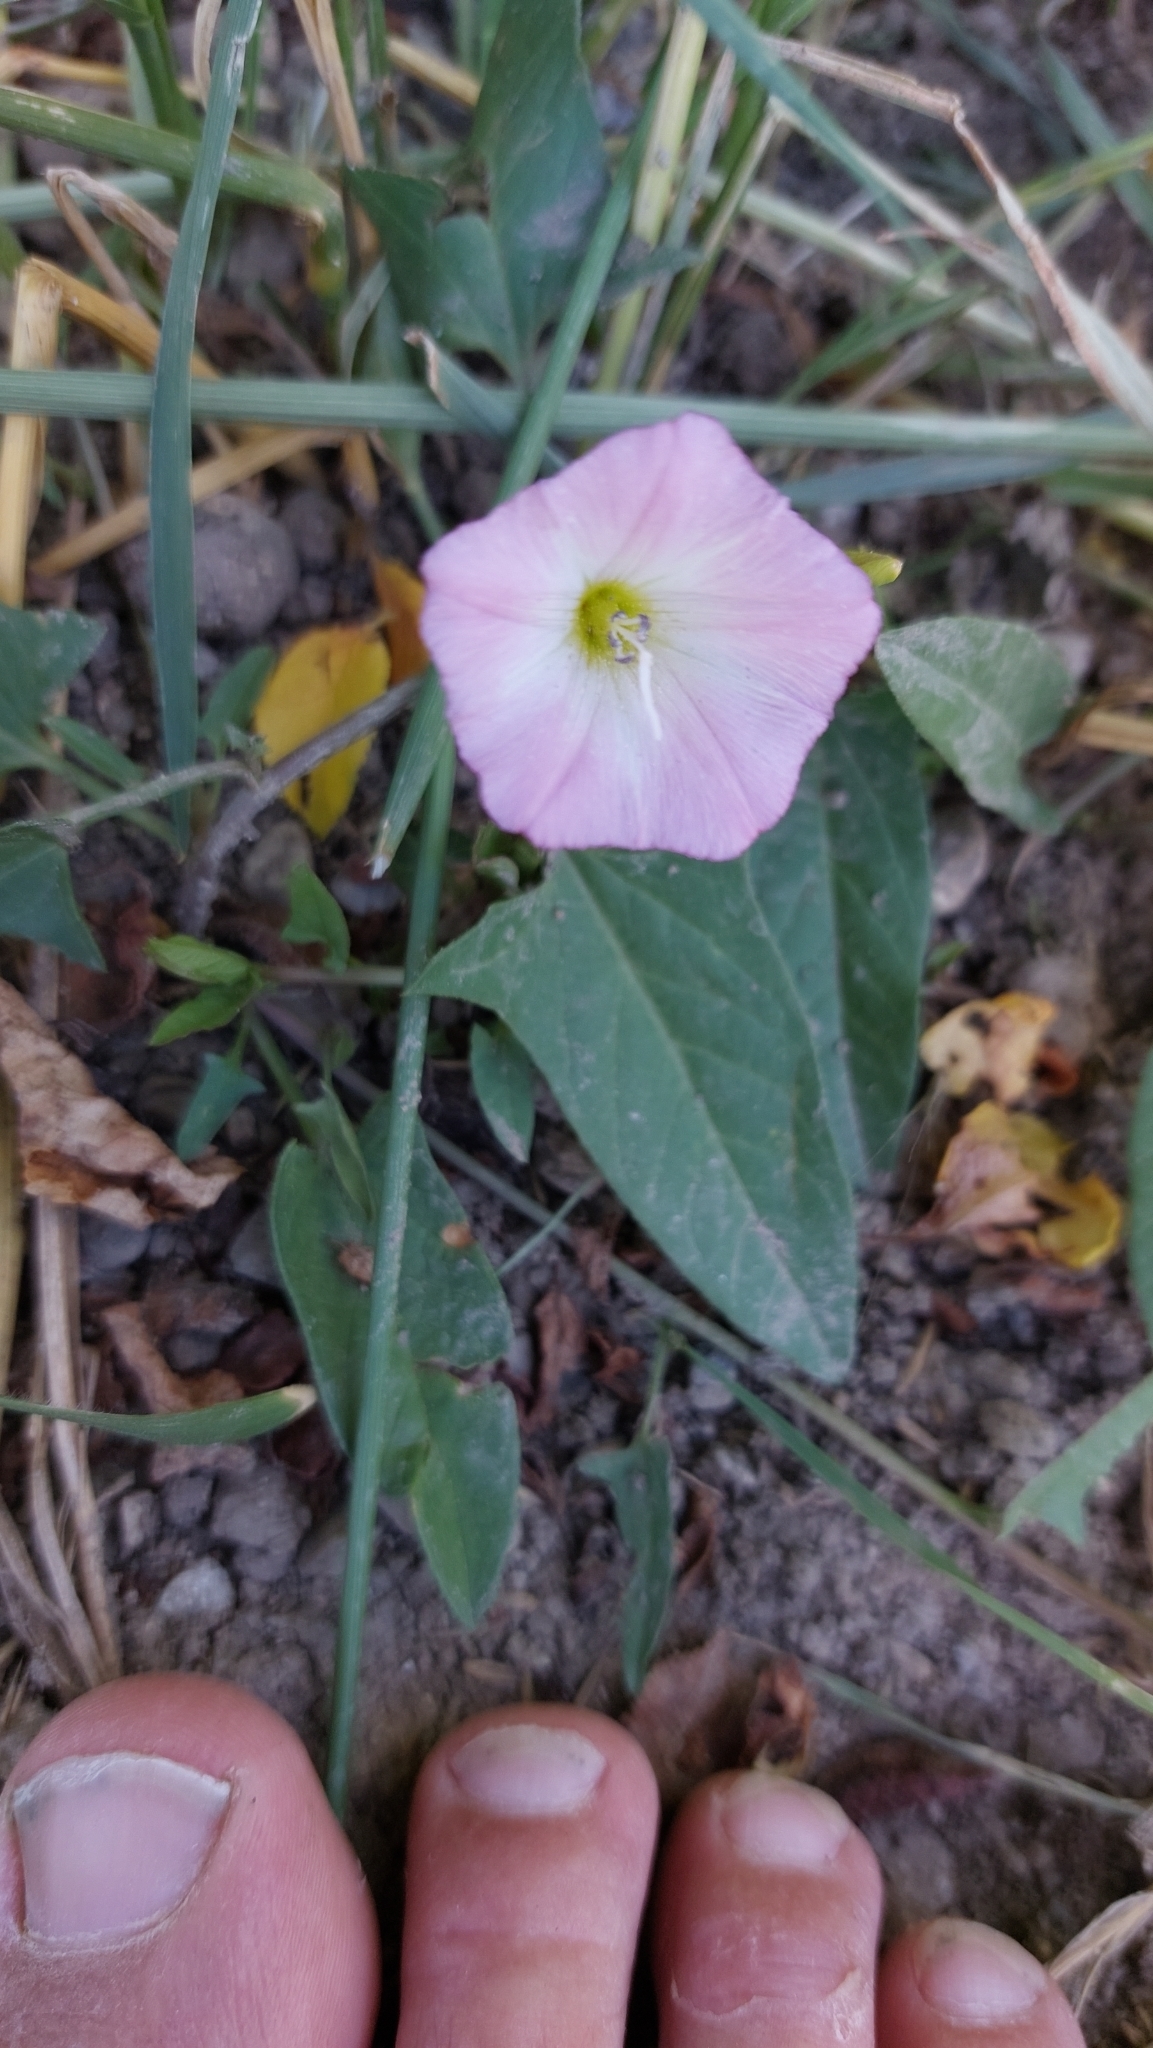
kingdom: Plantae
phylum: Tracheophyta
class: Magnoliopsida
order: Solanales
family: Convolvulaceae
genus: Convolvulus
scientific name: Convolvulus arvensis
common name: Field bindweed
